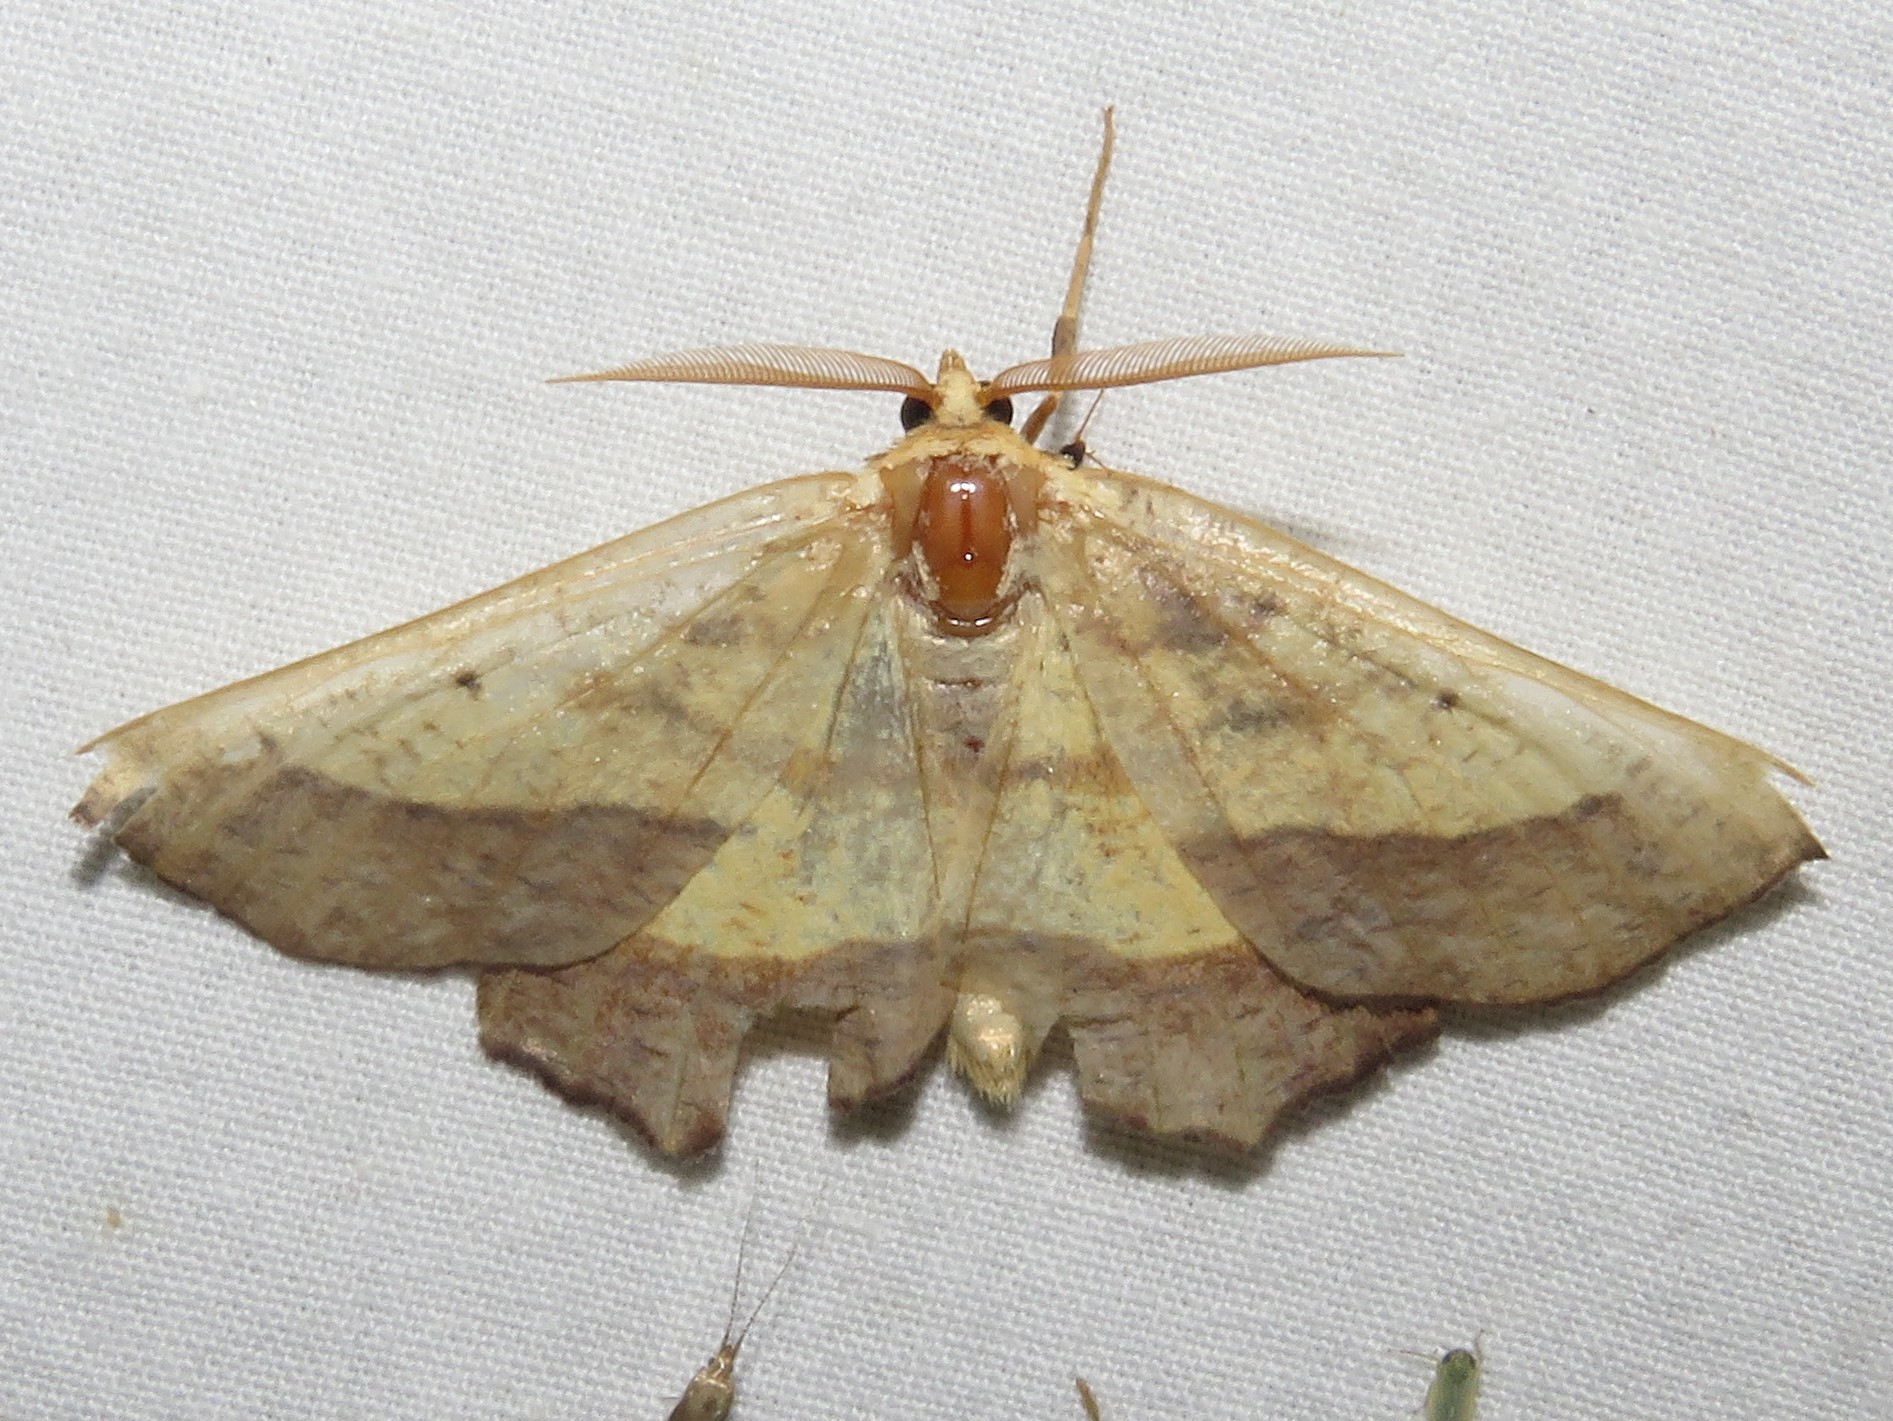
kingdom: Animalia
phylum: Arthropoda
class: Insecta
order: Lepidoptera
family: Geometridae
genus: Euchlaena
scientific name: Euchlaena serrata
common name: Saw wing
